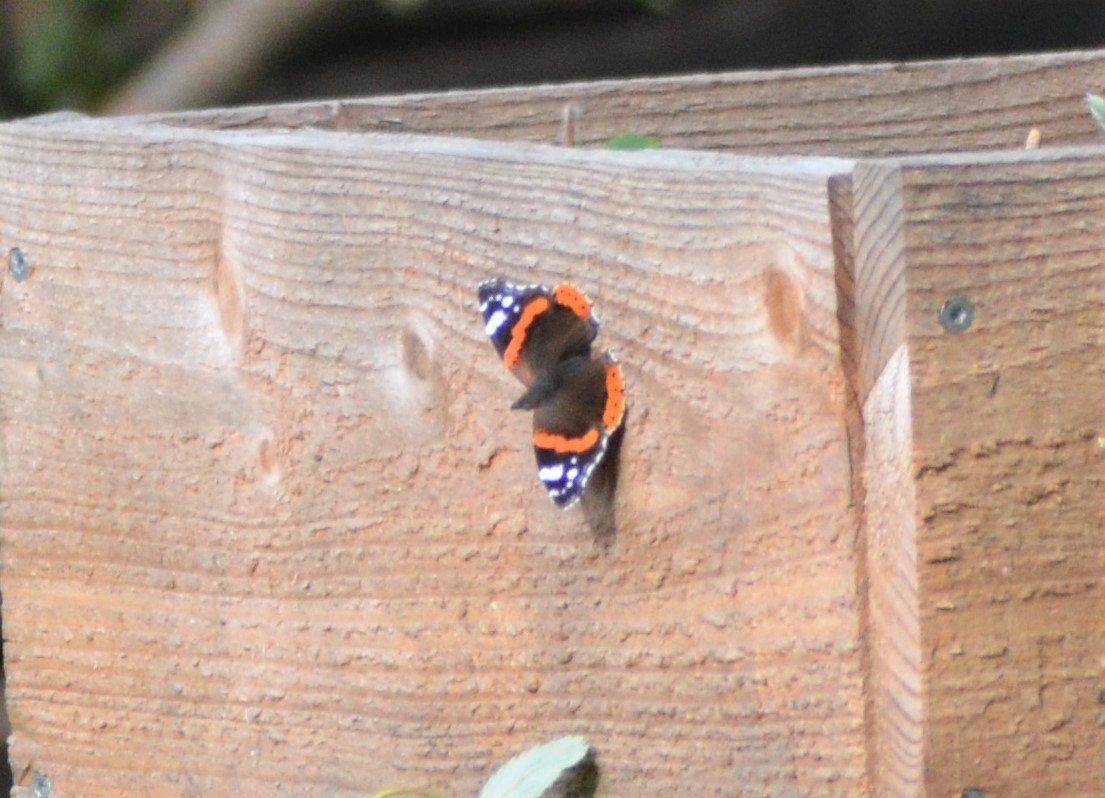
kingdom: Animalia
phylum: Arthropoda
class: Insecta
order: Lepidoptera
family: Nymphalidae
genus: Vanessa
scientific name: Vanessa atalanta
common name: Red admiral
